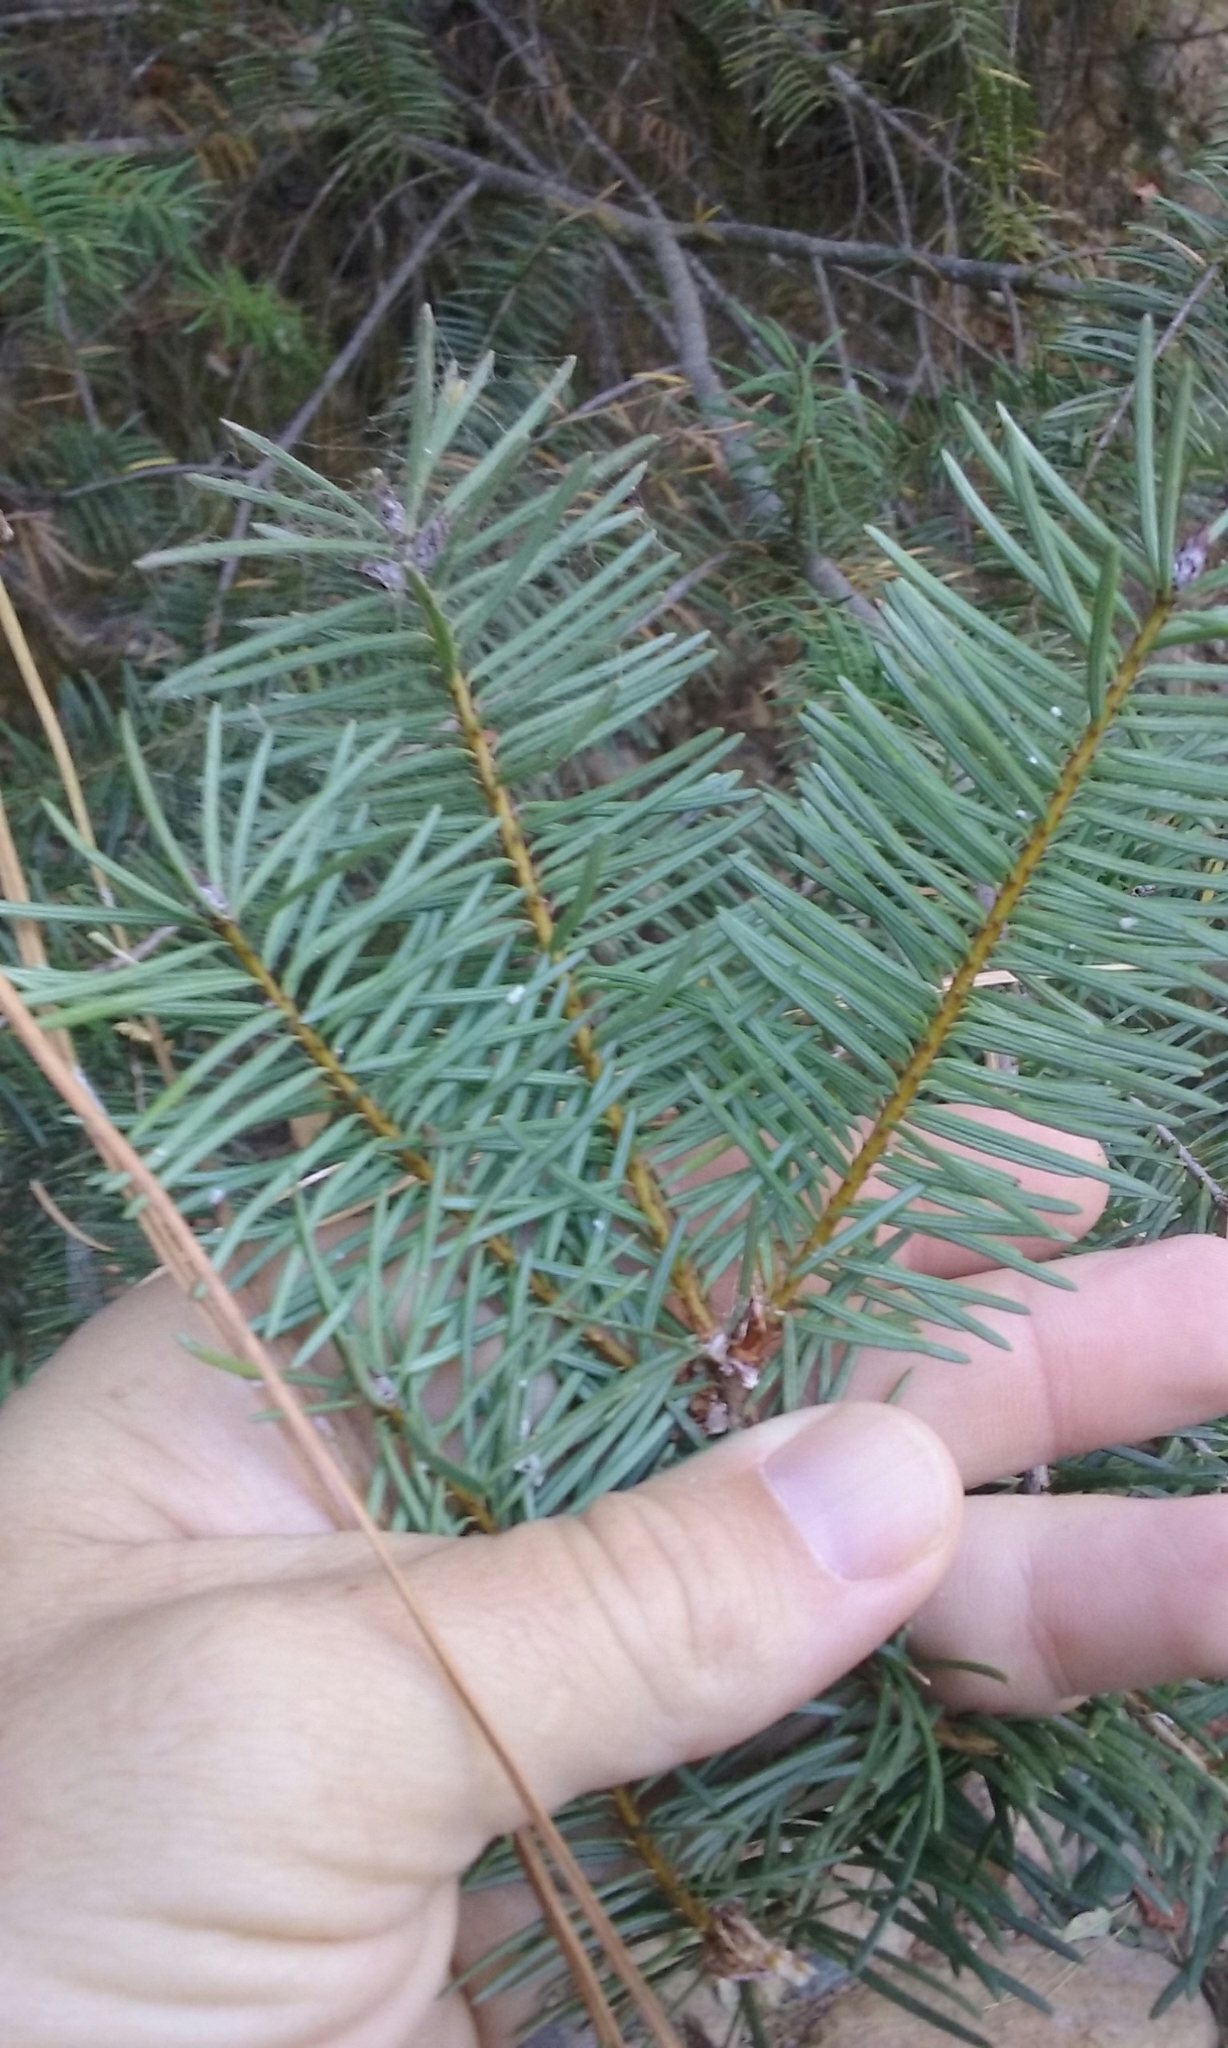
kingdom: Plantae
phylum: Tracheophyta
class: Pinopsida
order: Pinales
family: Pinaceae
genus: Pseudotsuga
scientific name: Pseudotsuga menziesii
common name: Douglas fir
